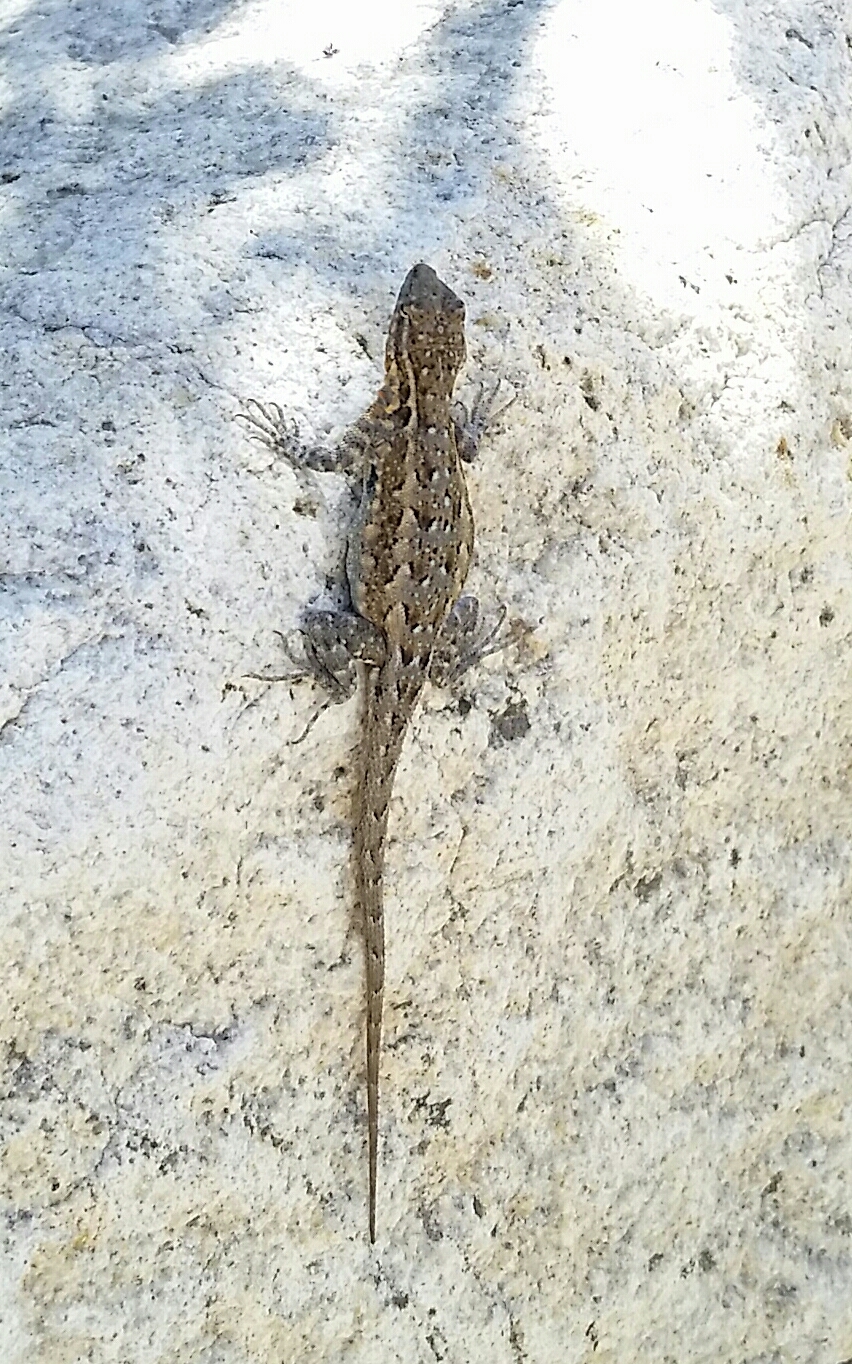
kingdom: Animalia
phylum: Chordata
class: Squamata
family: Phrynosomatidae
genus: Uta
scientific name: Uta stansburiana
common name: Side-blotched lizard
